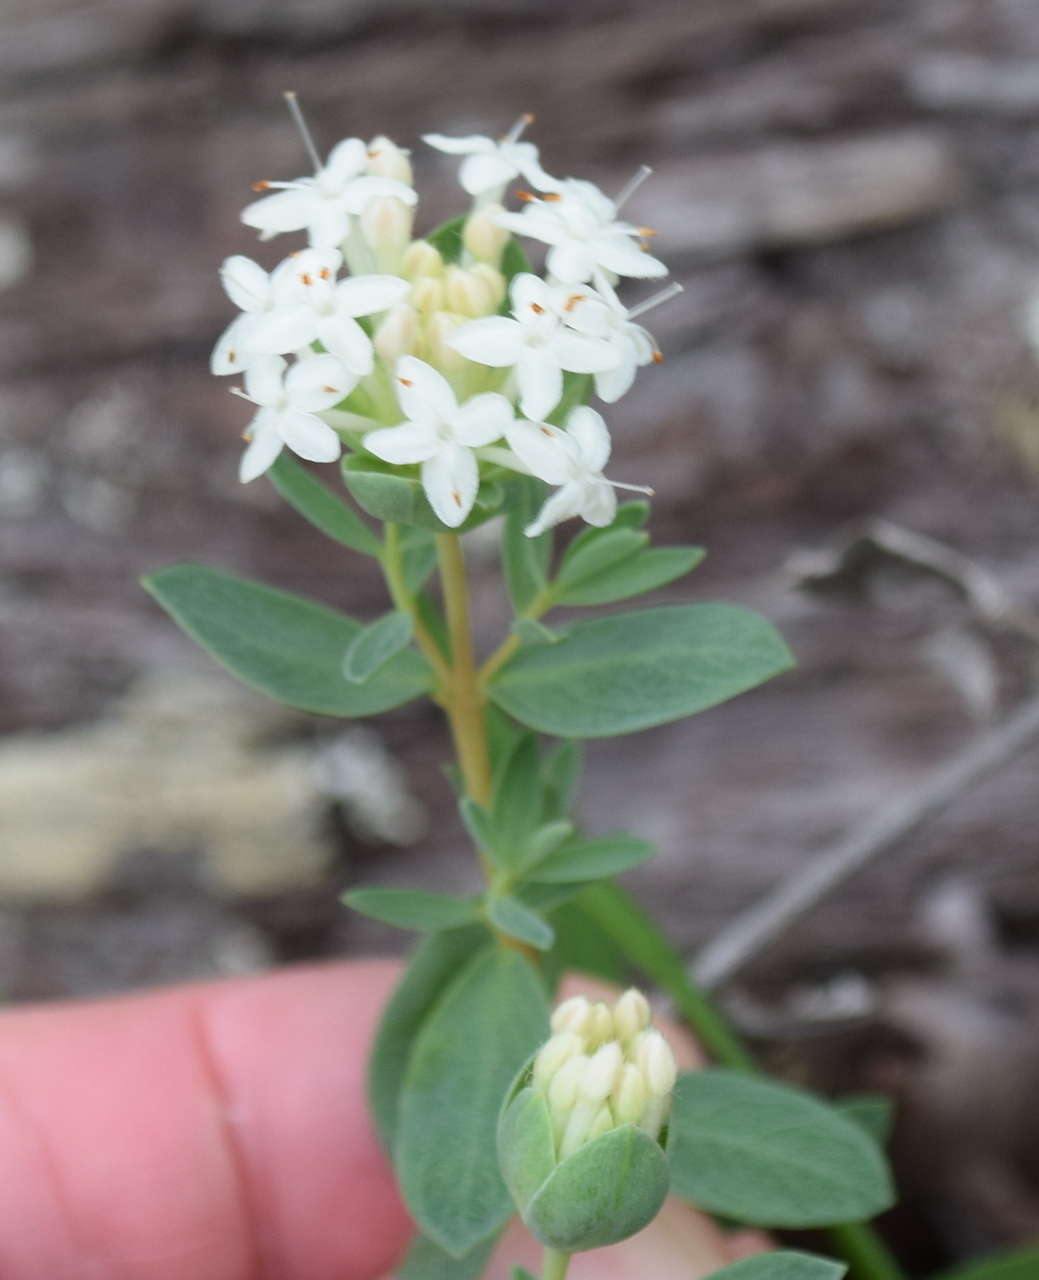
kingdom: Plantae
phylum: Tracheophyta
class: Magnoliopsida
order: Malvales
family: Thymelaeaceae
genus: Pimelea
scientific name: Pimelea humilis
